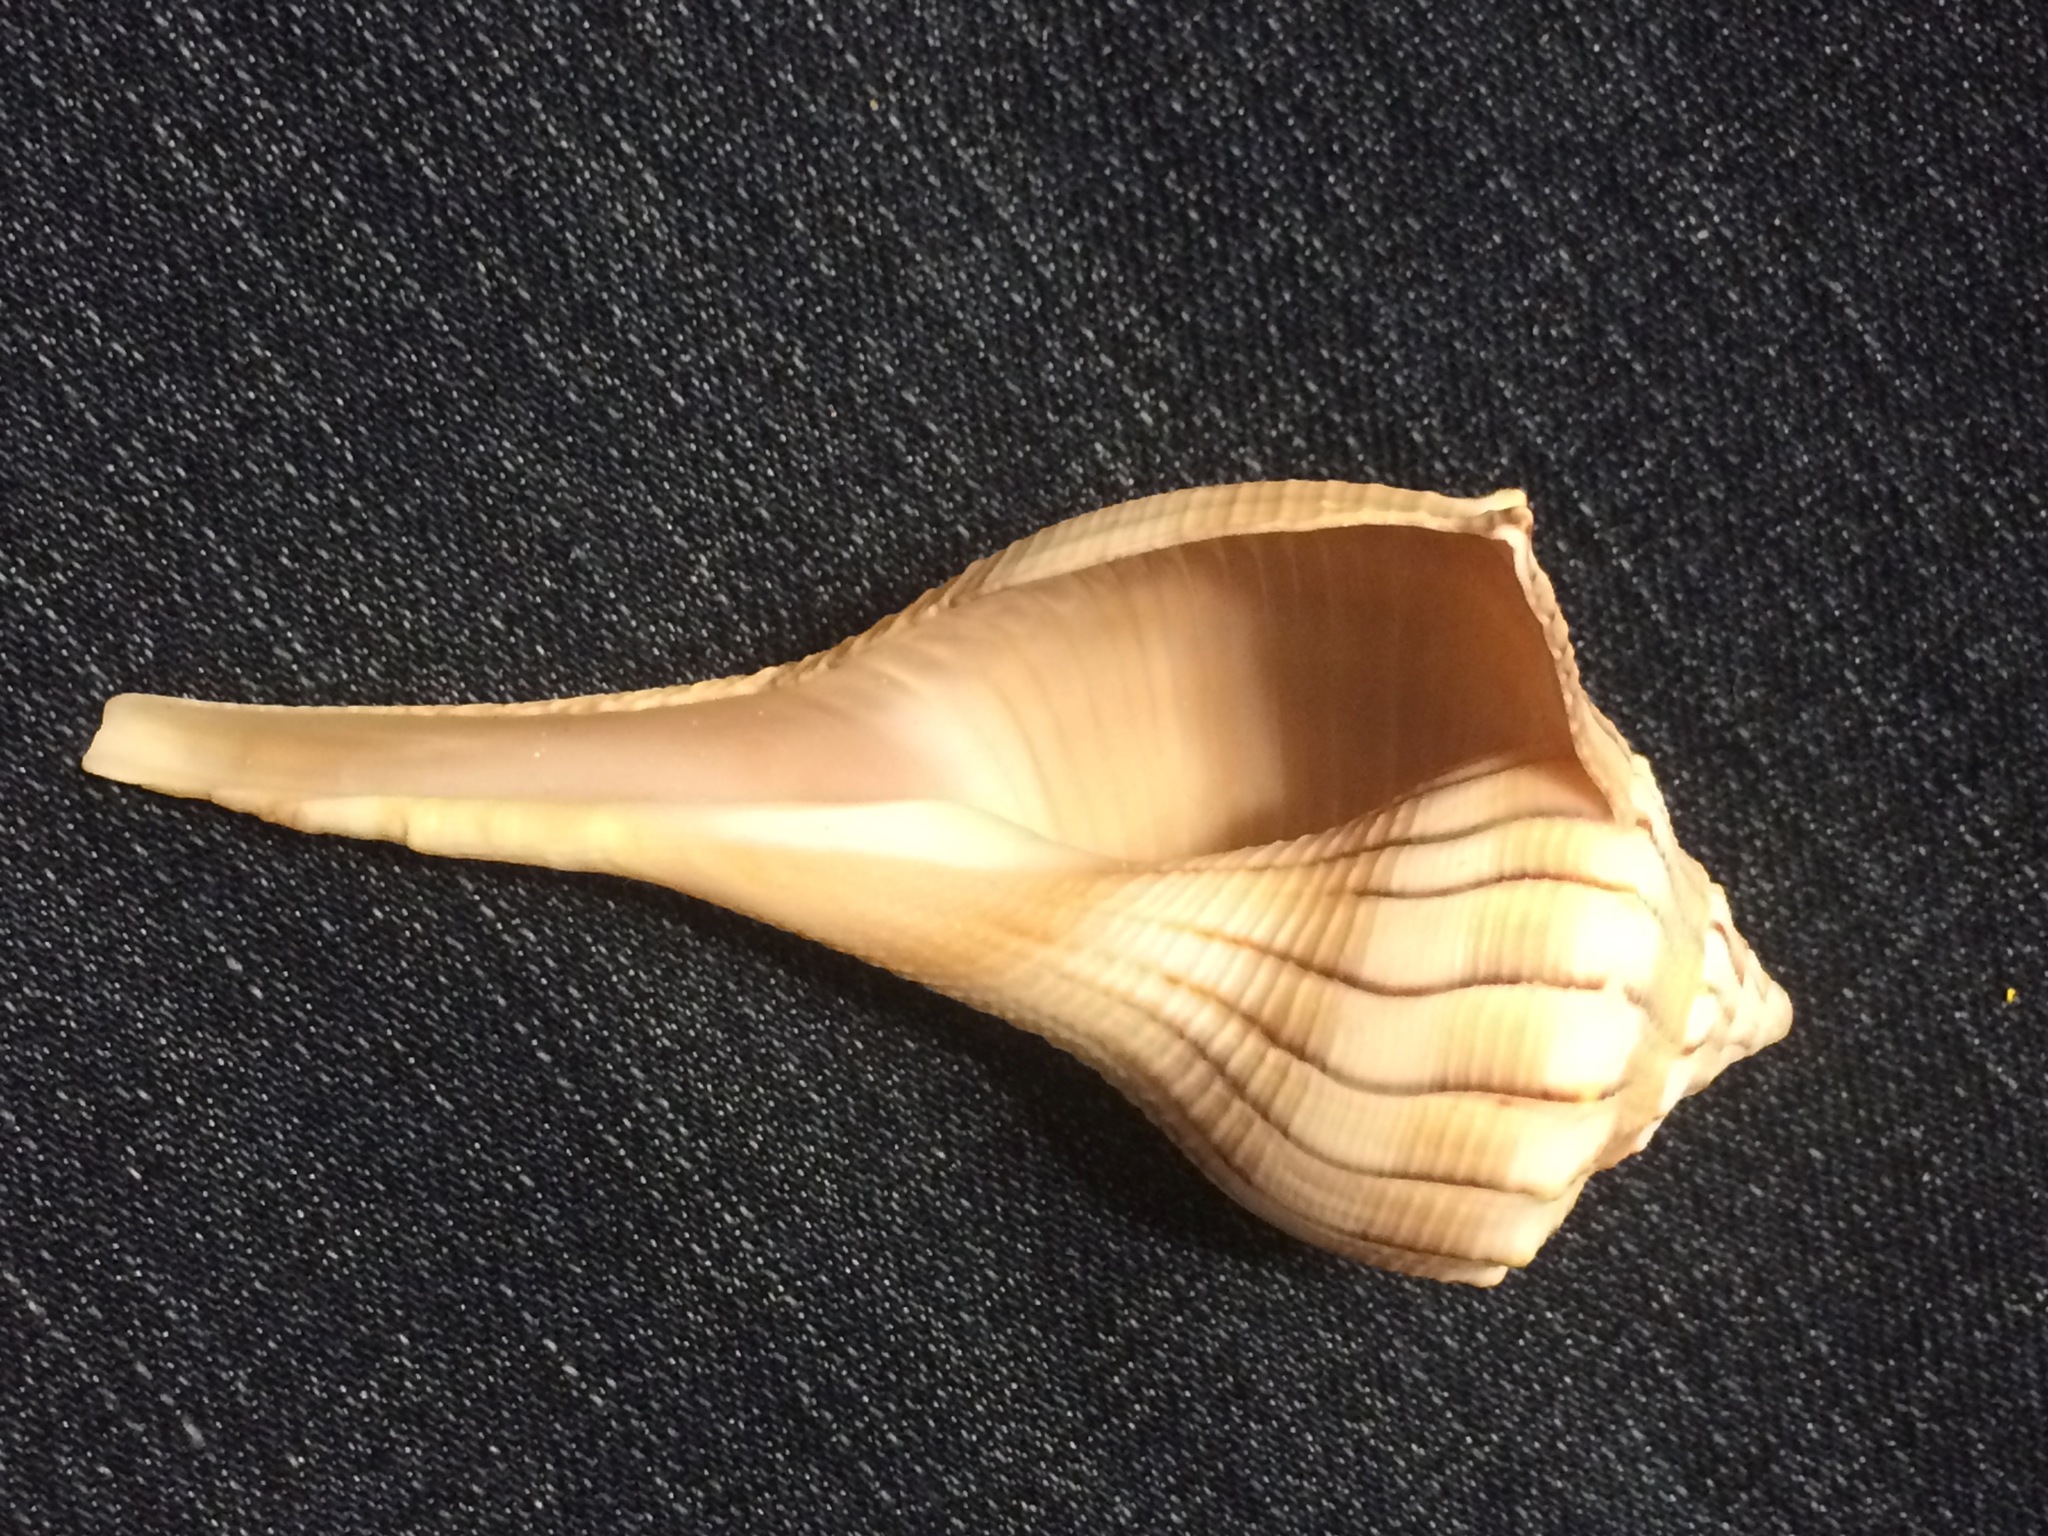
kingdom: Animalia
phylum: Mollusca
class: Gastropoda
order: Neogastropoda
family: Busyconidae
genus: Sinistrofulgur
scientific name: Sinistrofulgur sinistrum
